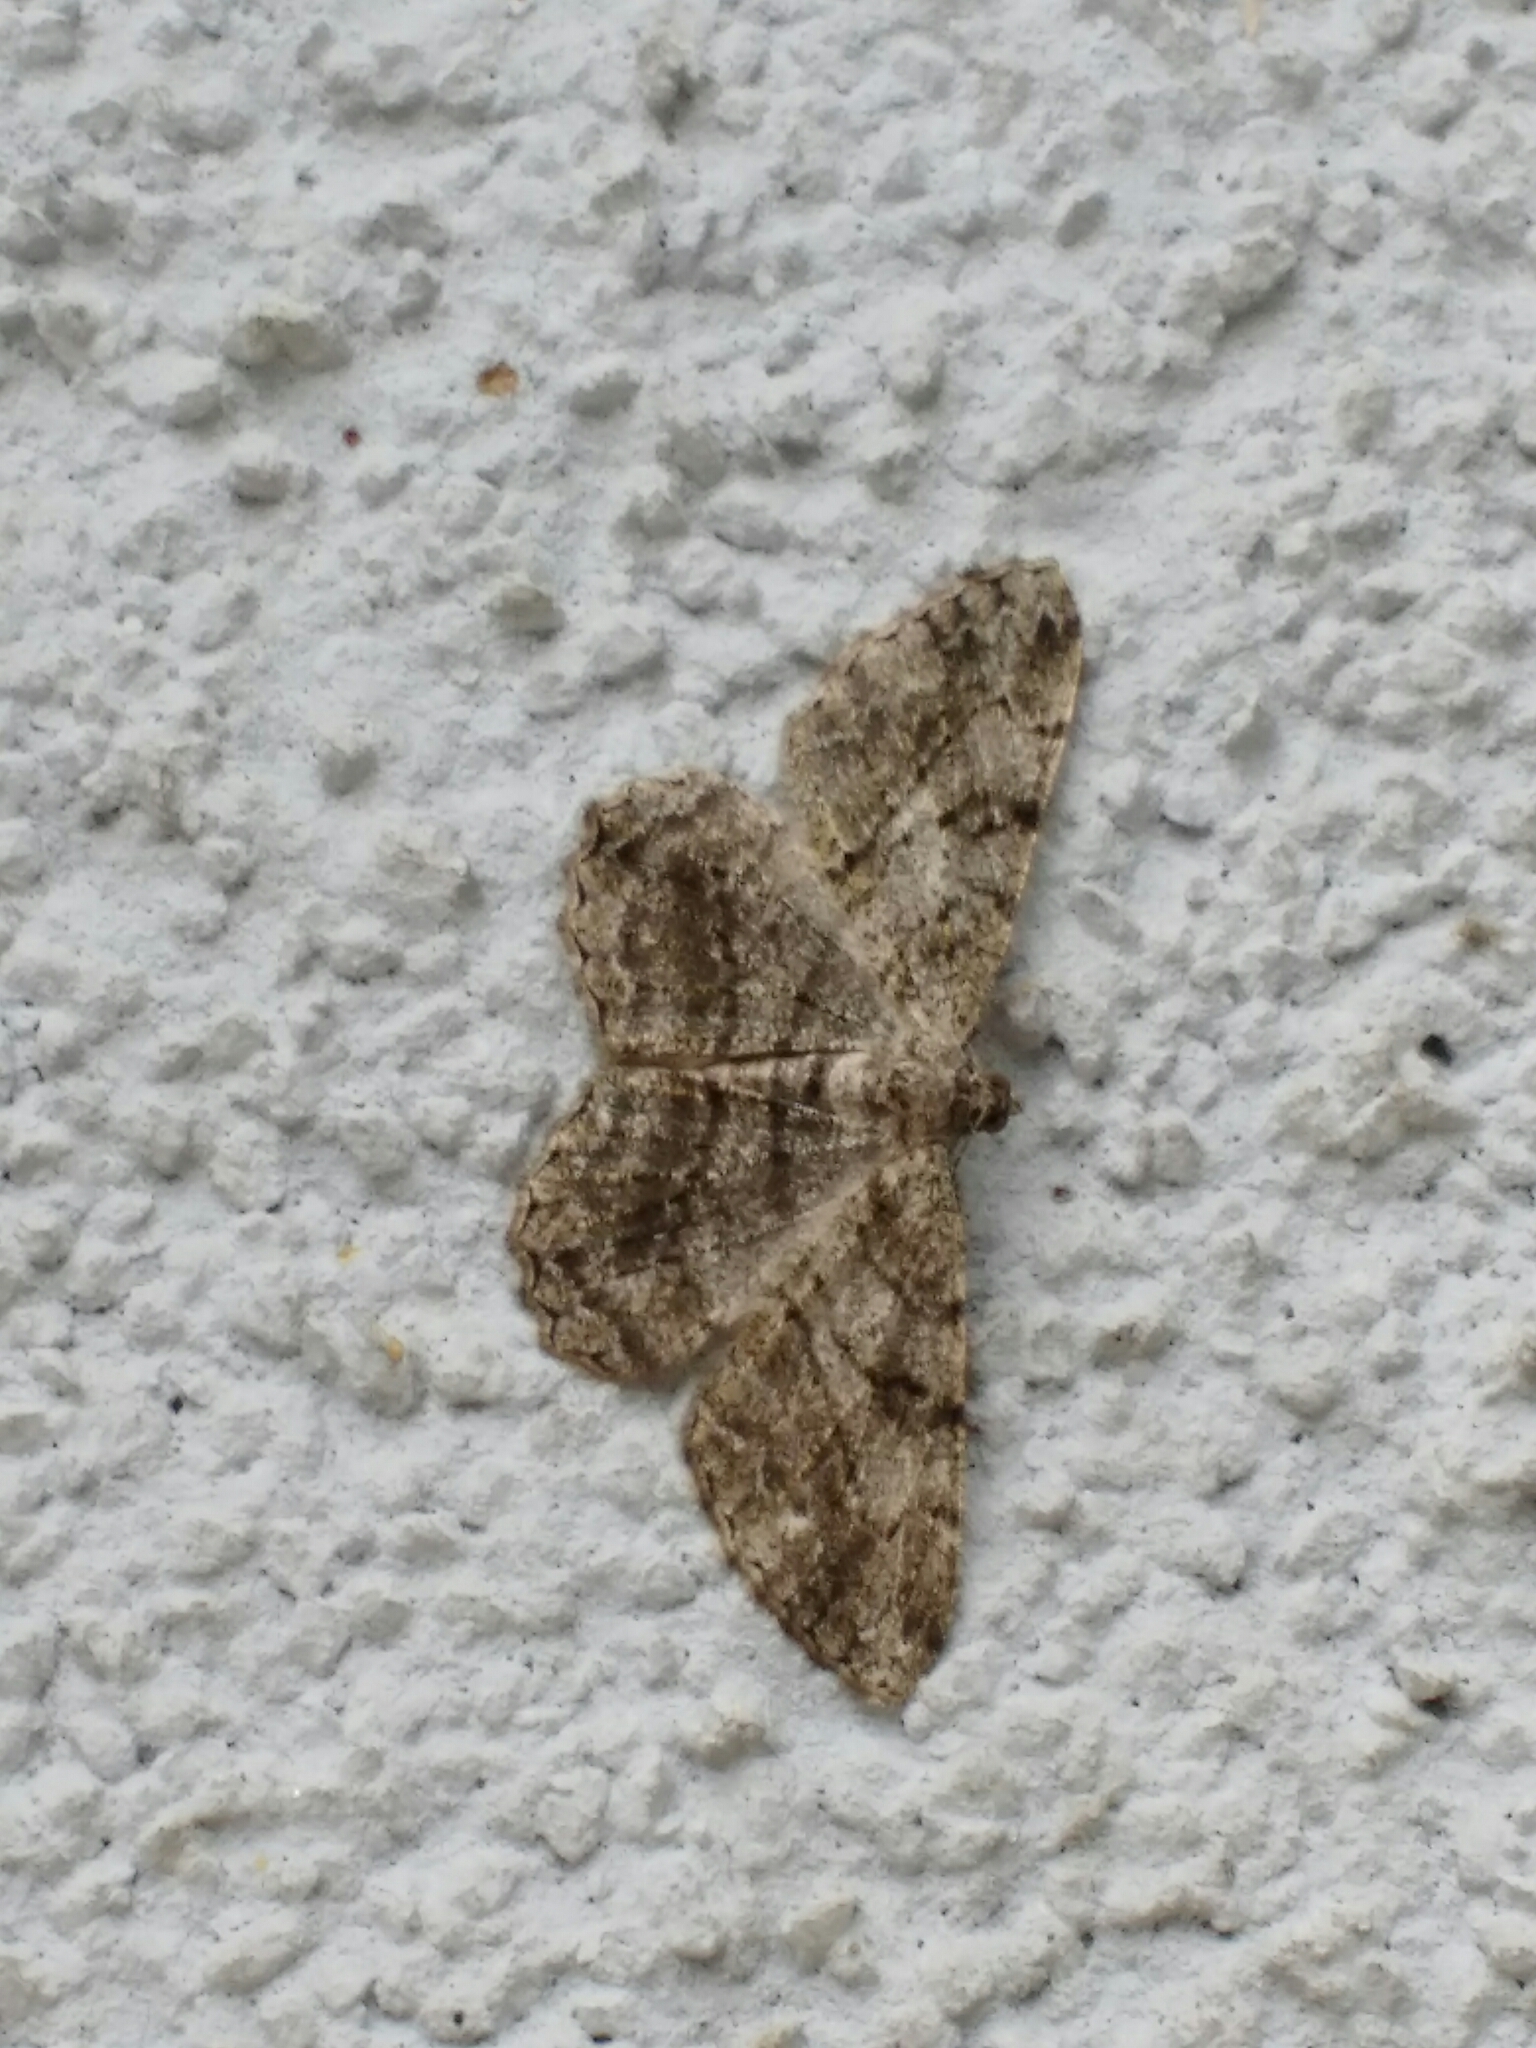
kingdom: Animalia
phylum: Arthropoda
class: Insecta
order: Lepidoptera
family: Geometridae
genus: Peribatodes
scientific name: Peribatodes rhomboidaria
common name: Willow beauty
